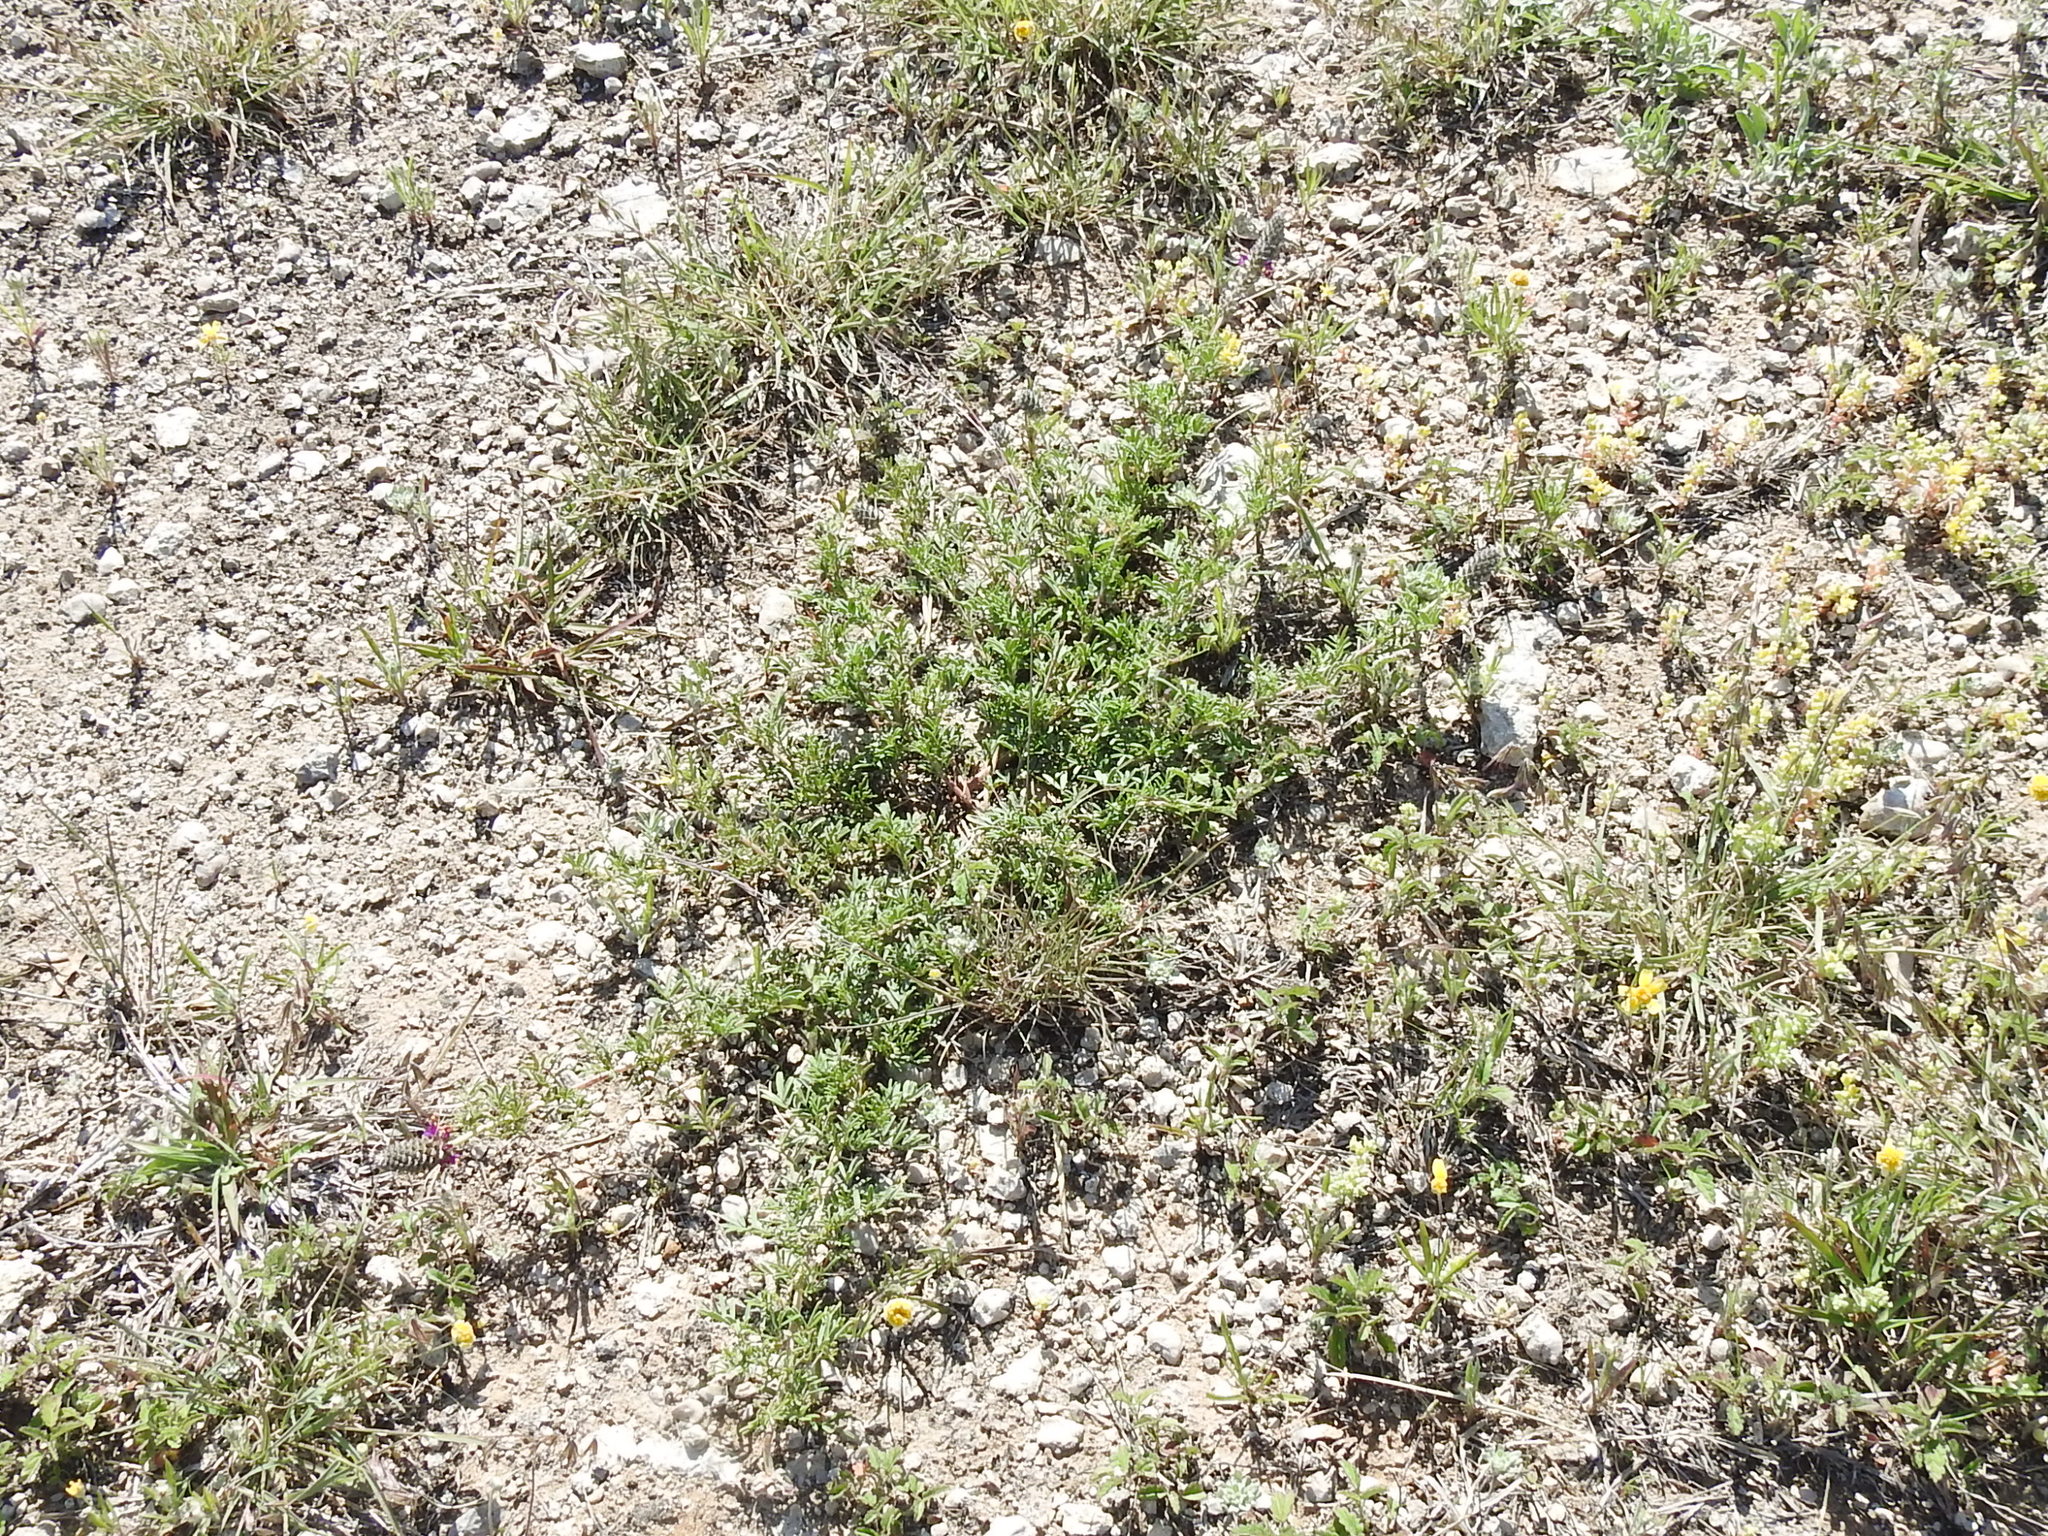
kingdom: Plantae
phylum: Tracheophyta
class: Magnoliopsida
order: Fabales
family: Fabaceae
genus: Dalea
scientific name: Dalea reverchonii
